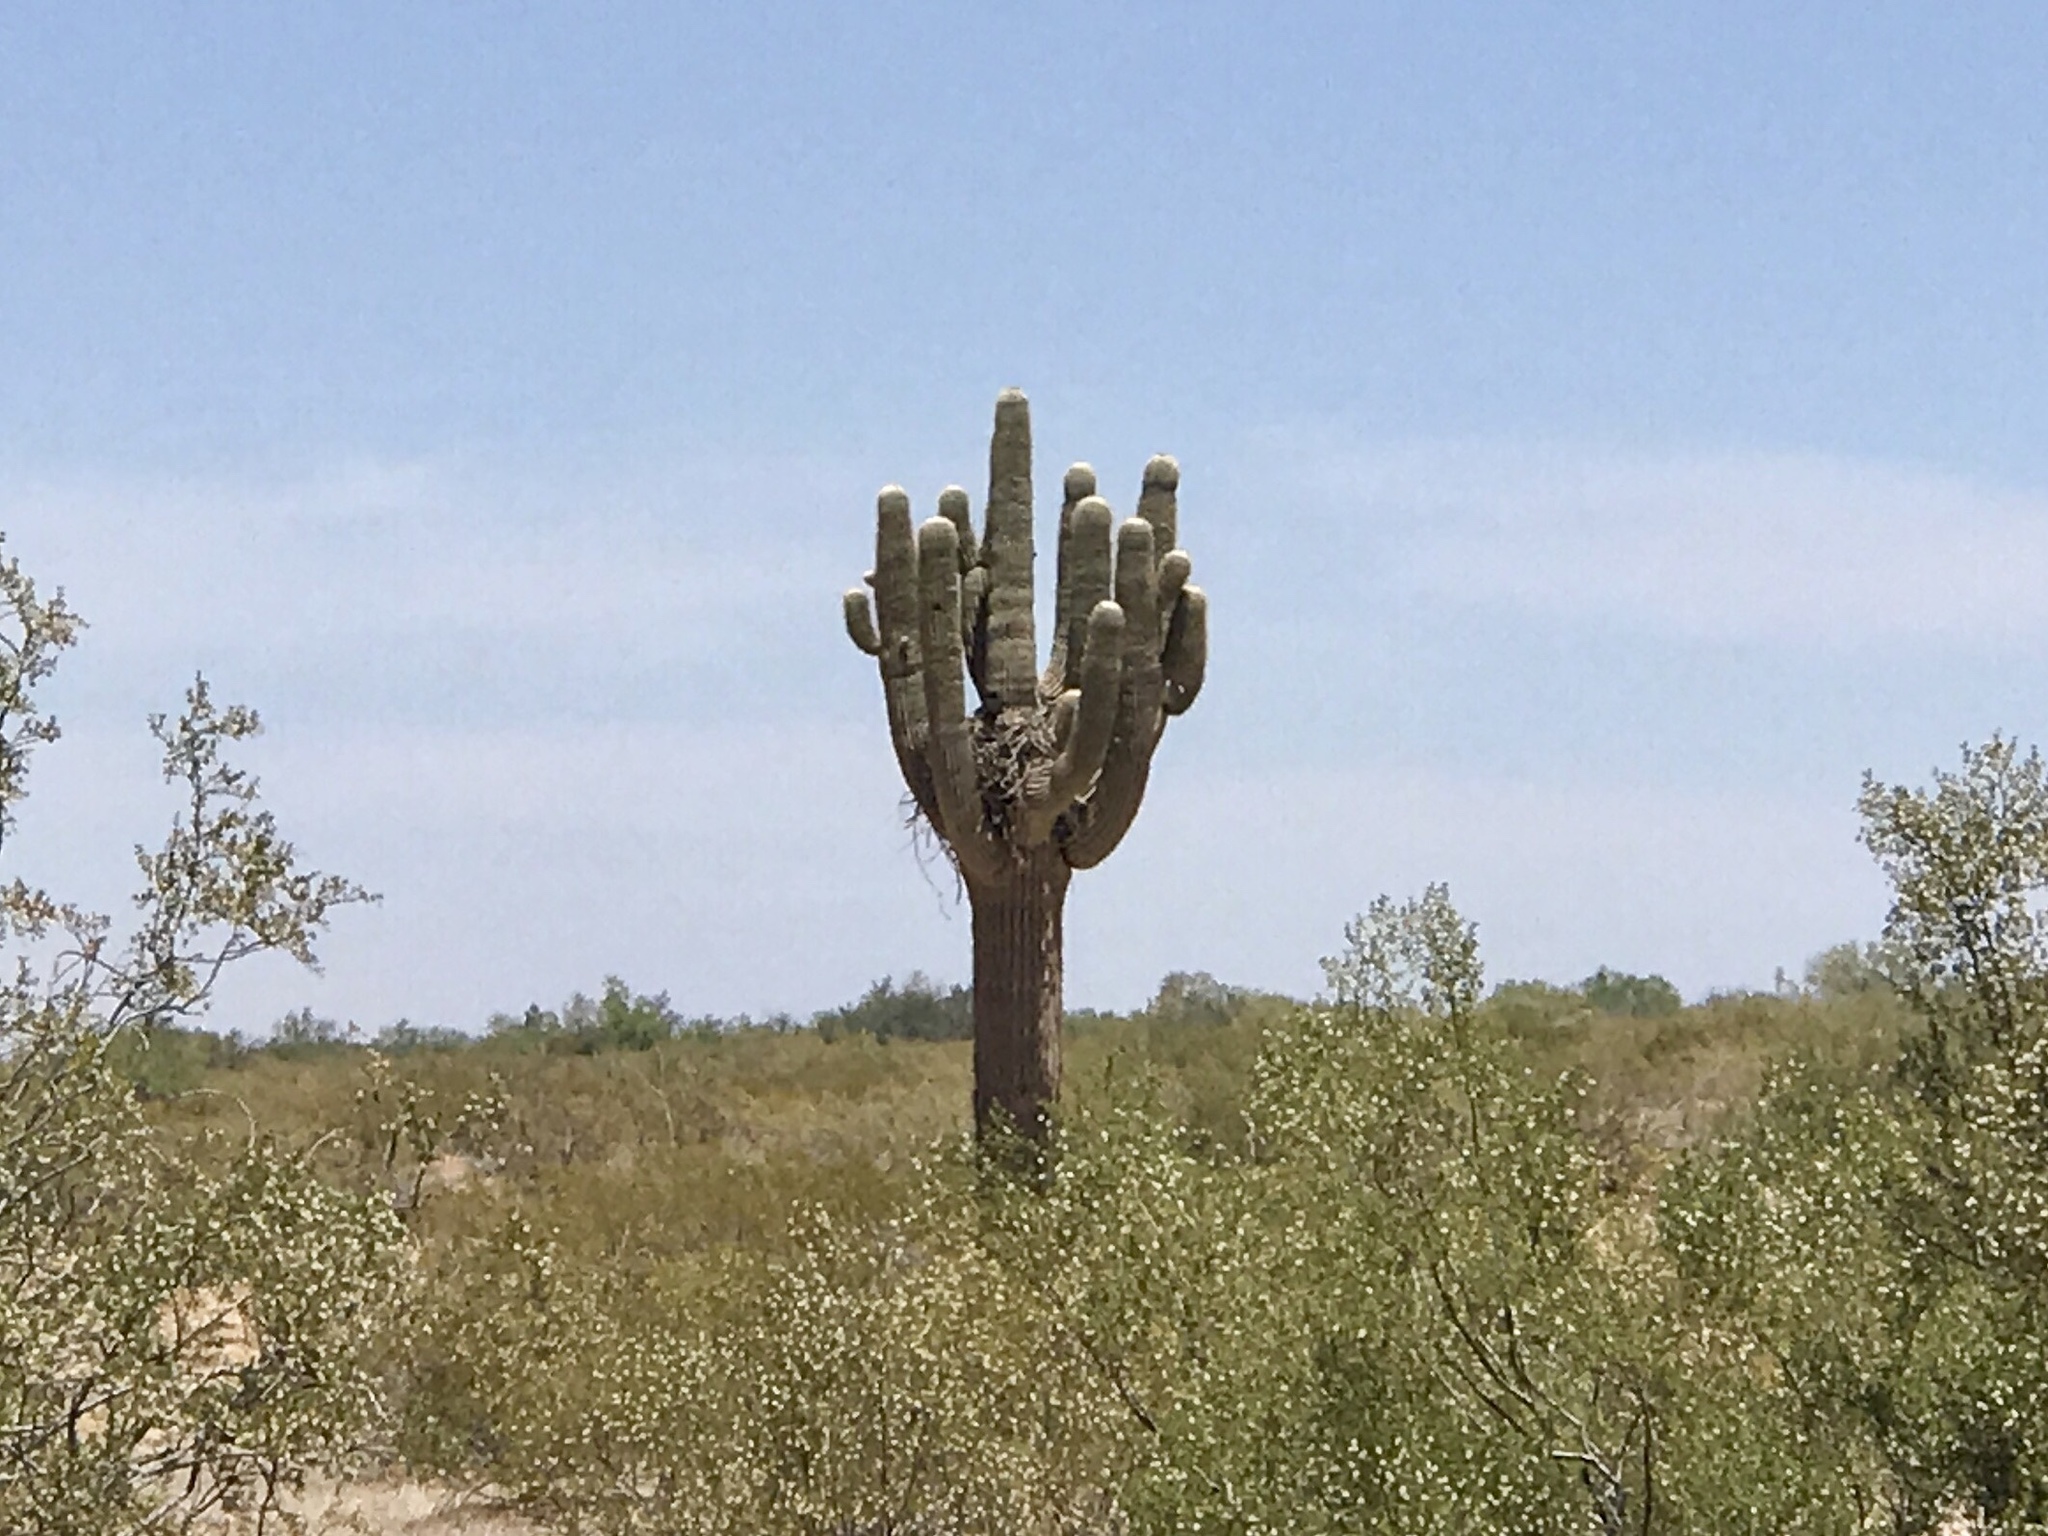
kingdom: Plantae
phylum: Tracheophyta
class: Magnoliopsida
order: Caryophyllales
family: Cactaceae
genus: Carnegiea
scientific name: Carnegiea gigantea
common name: Saguaro
